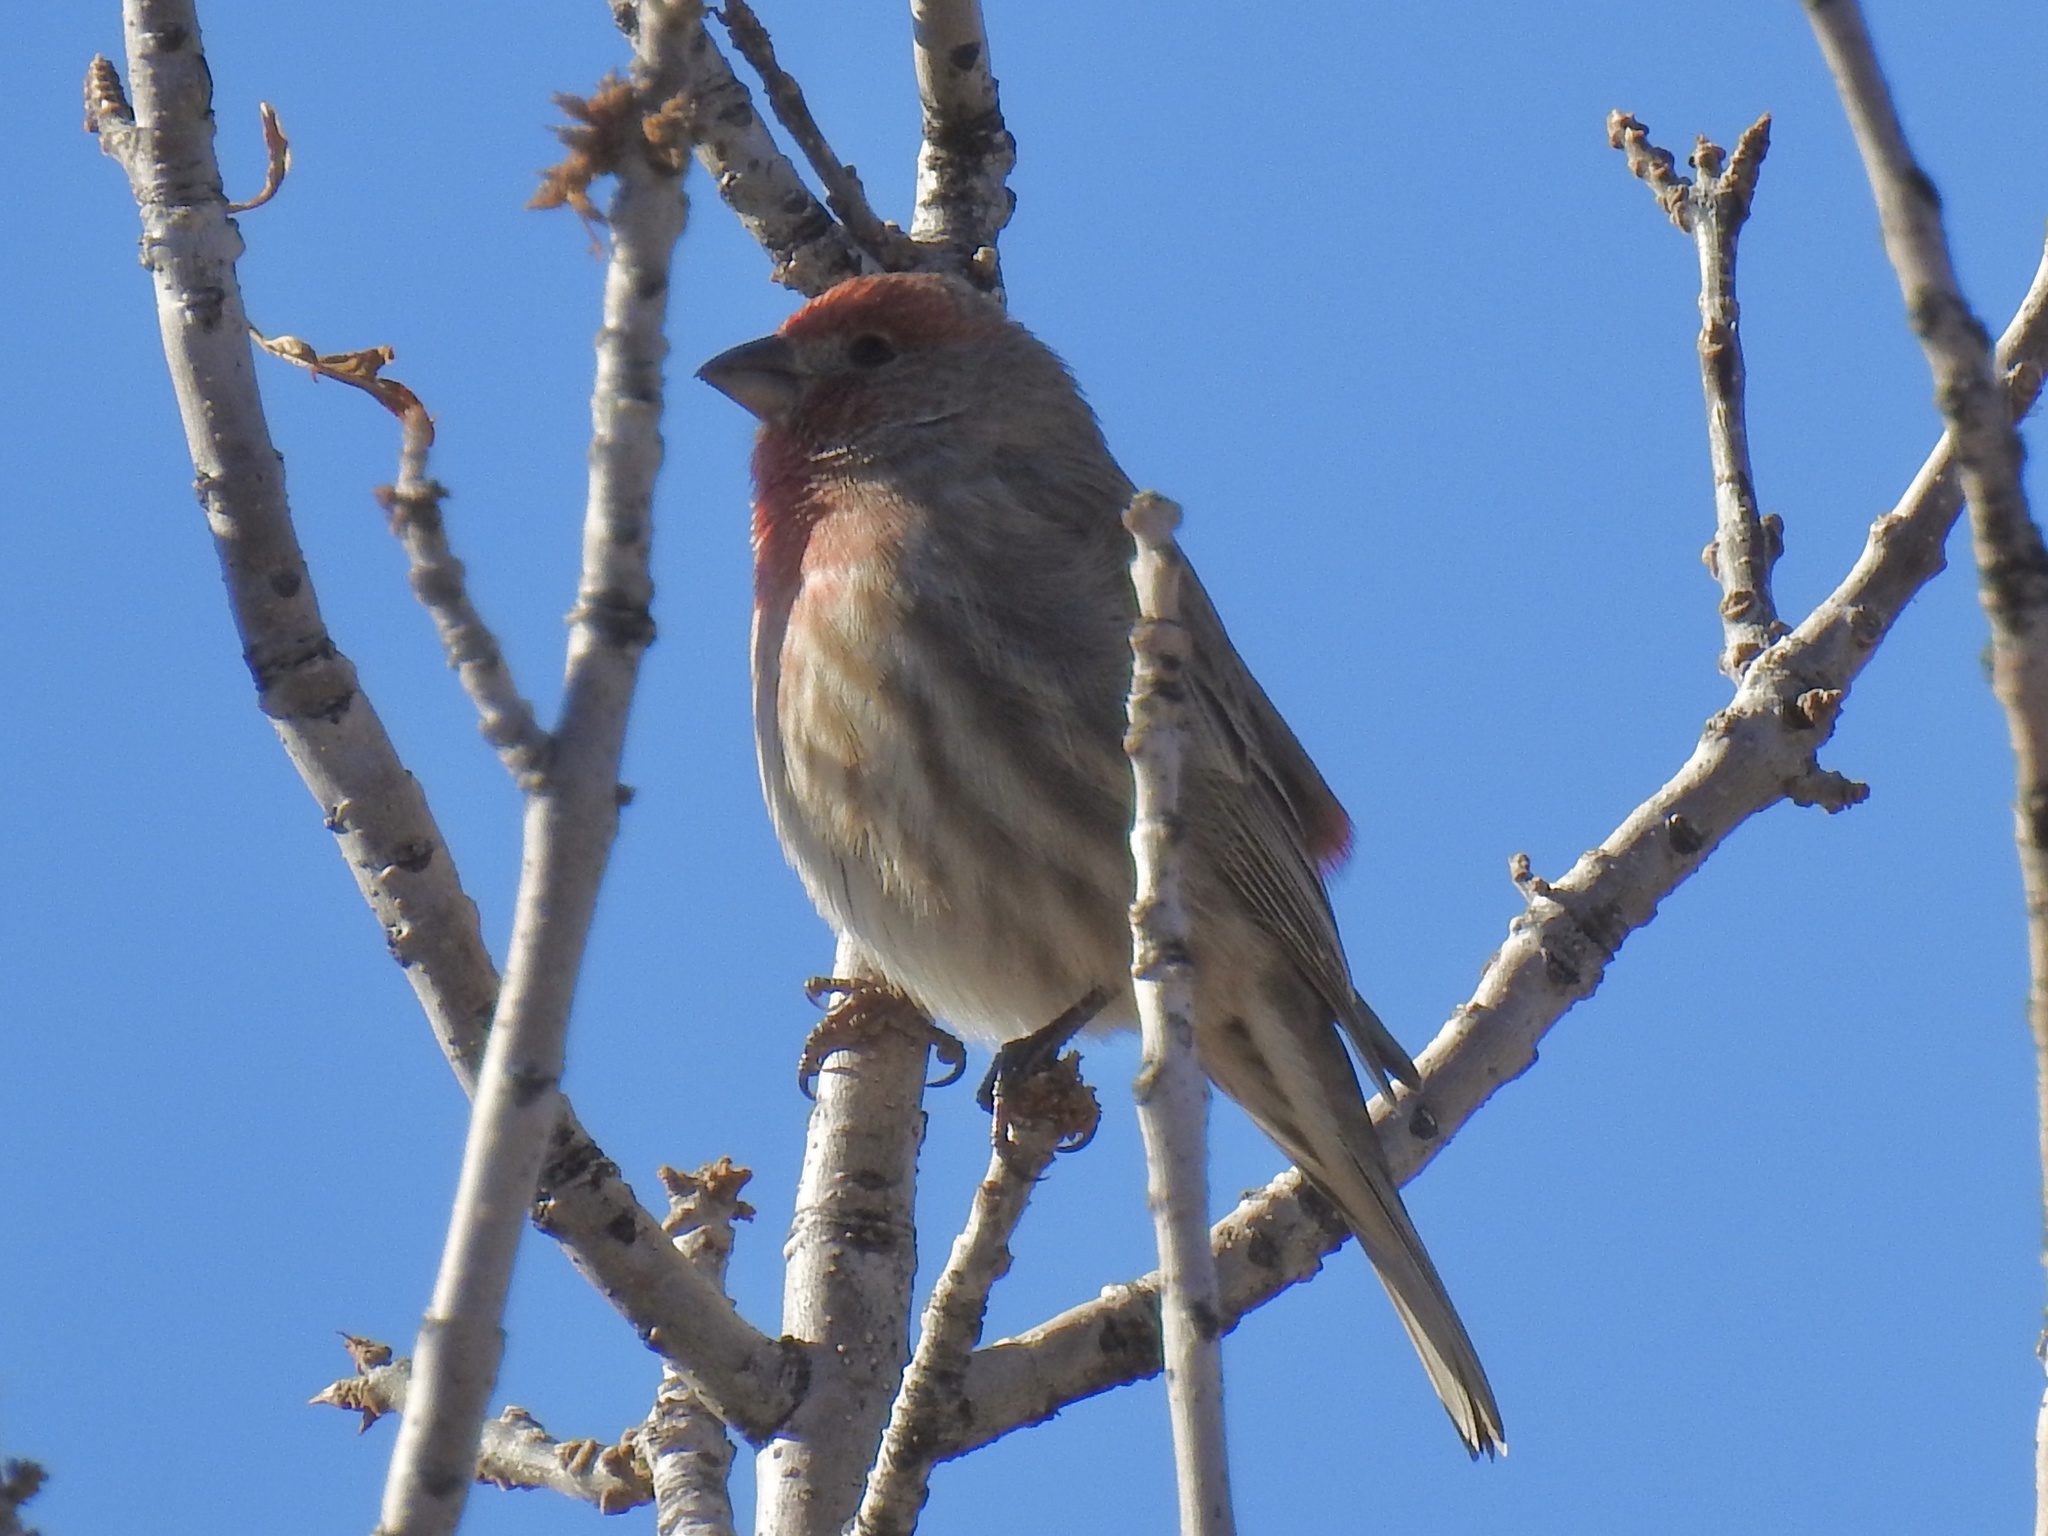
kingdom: Animalia
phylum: Chordata
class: Aves
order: Passeriformes
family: Fringillidae
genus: Haemorhous
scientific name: Haemorhous mexicanus
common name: House finch
